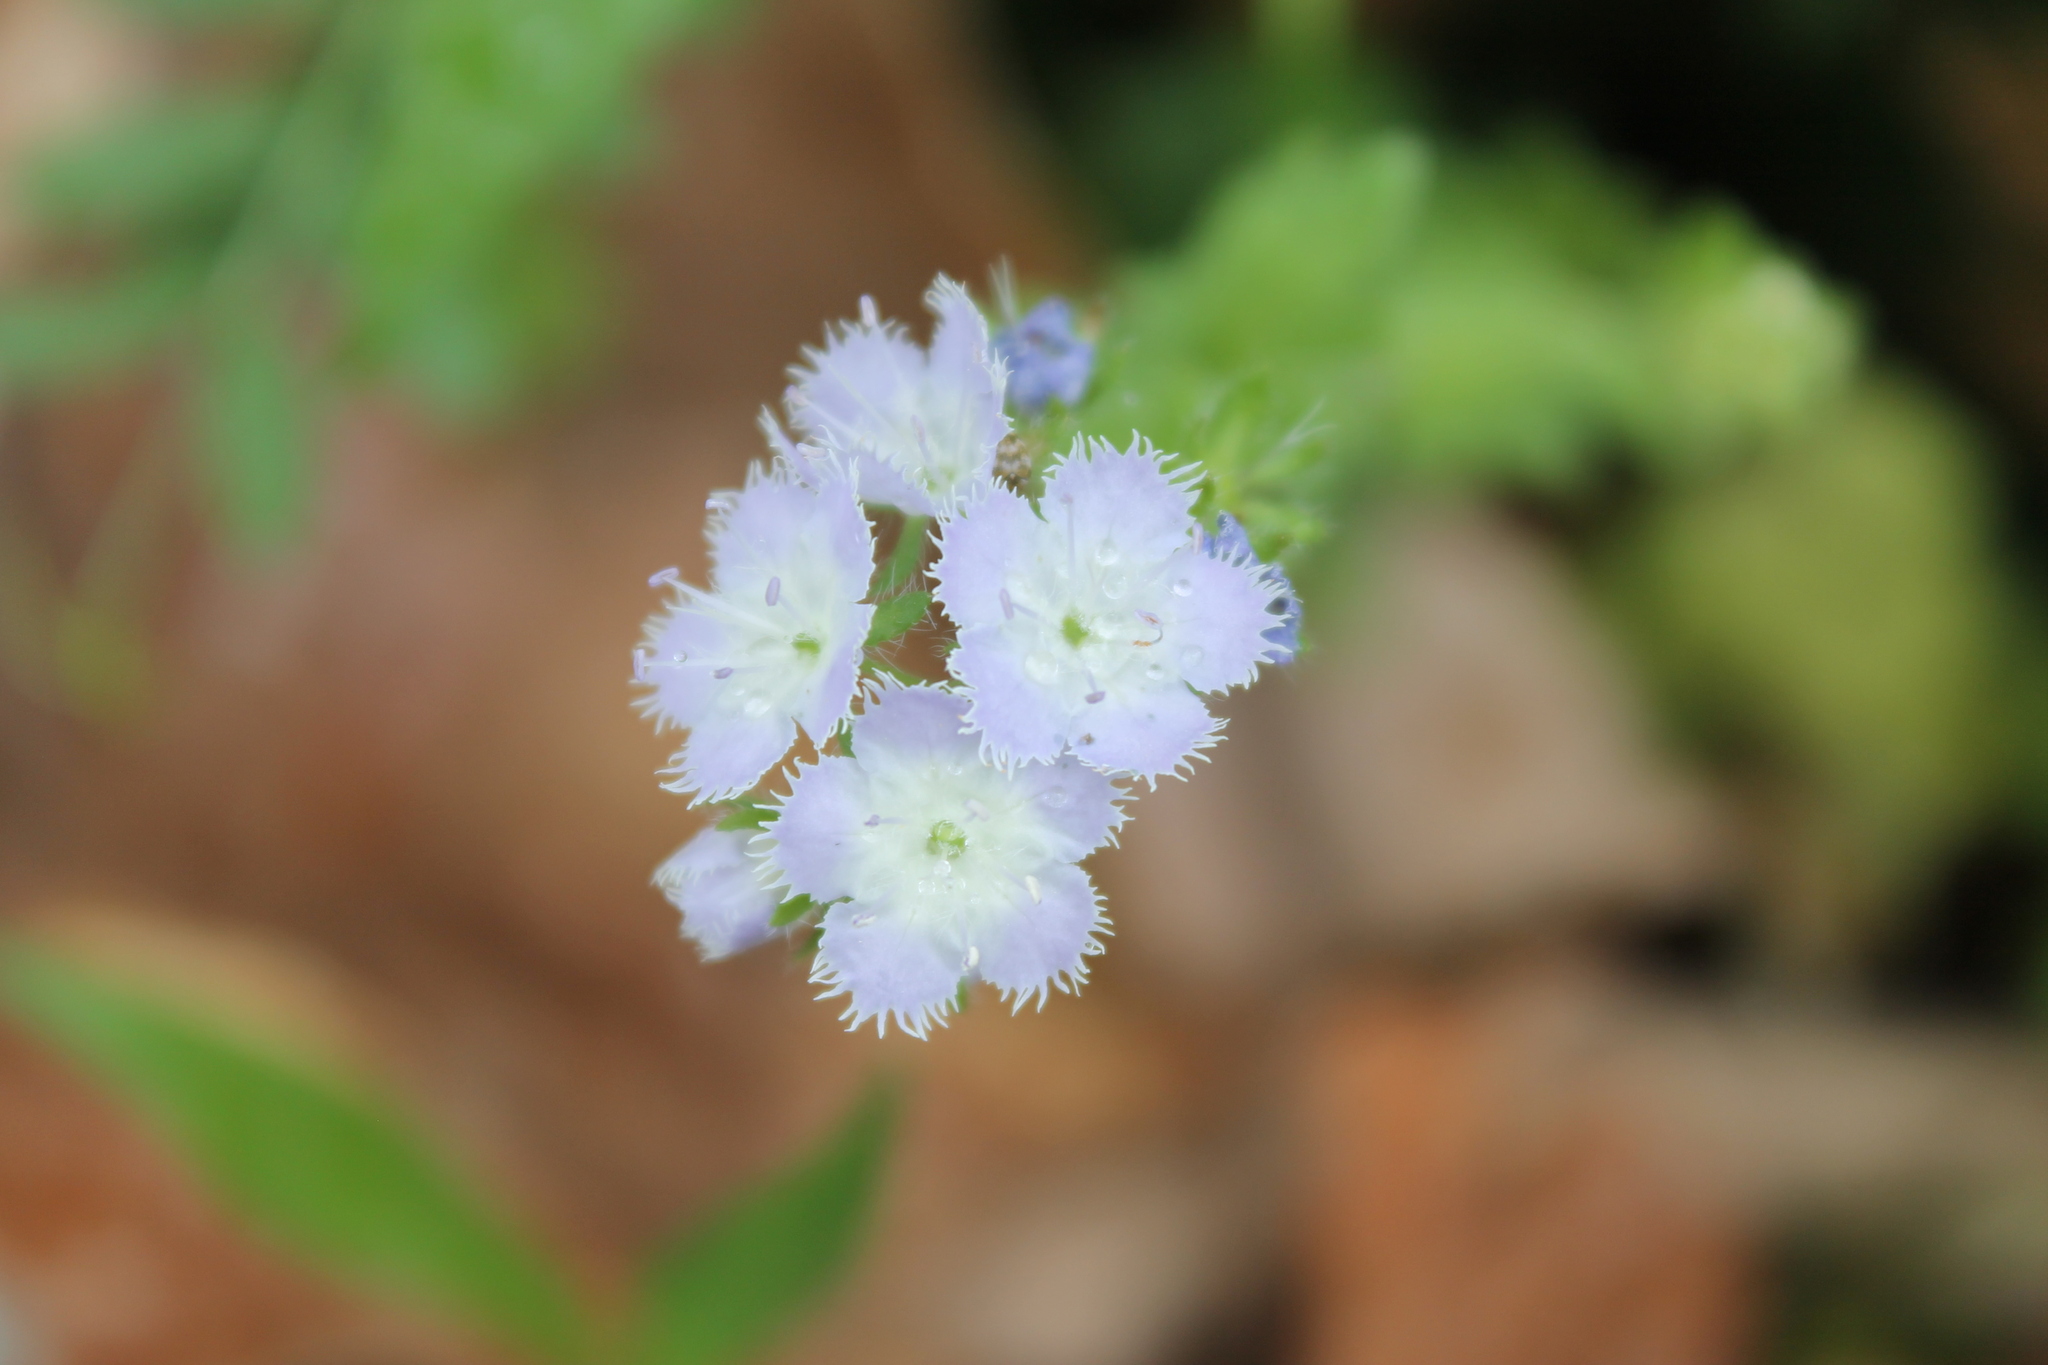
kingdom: Plantae
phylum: Tracheophyta
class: Magnoliopsida
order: Boraginales
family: Hydrophyllaceae
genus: Phacelia
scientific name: Phacelia purshii
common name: Miami-mist
